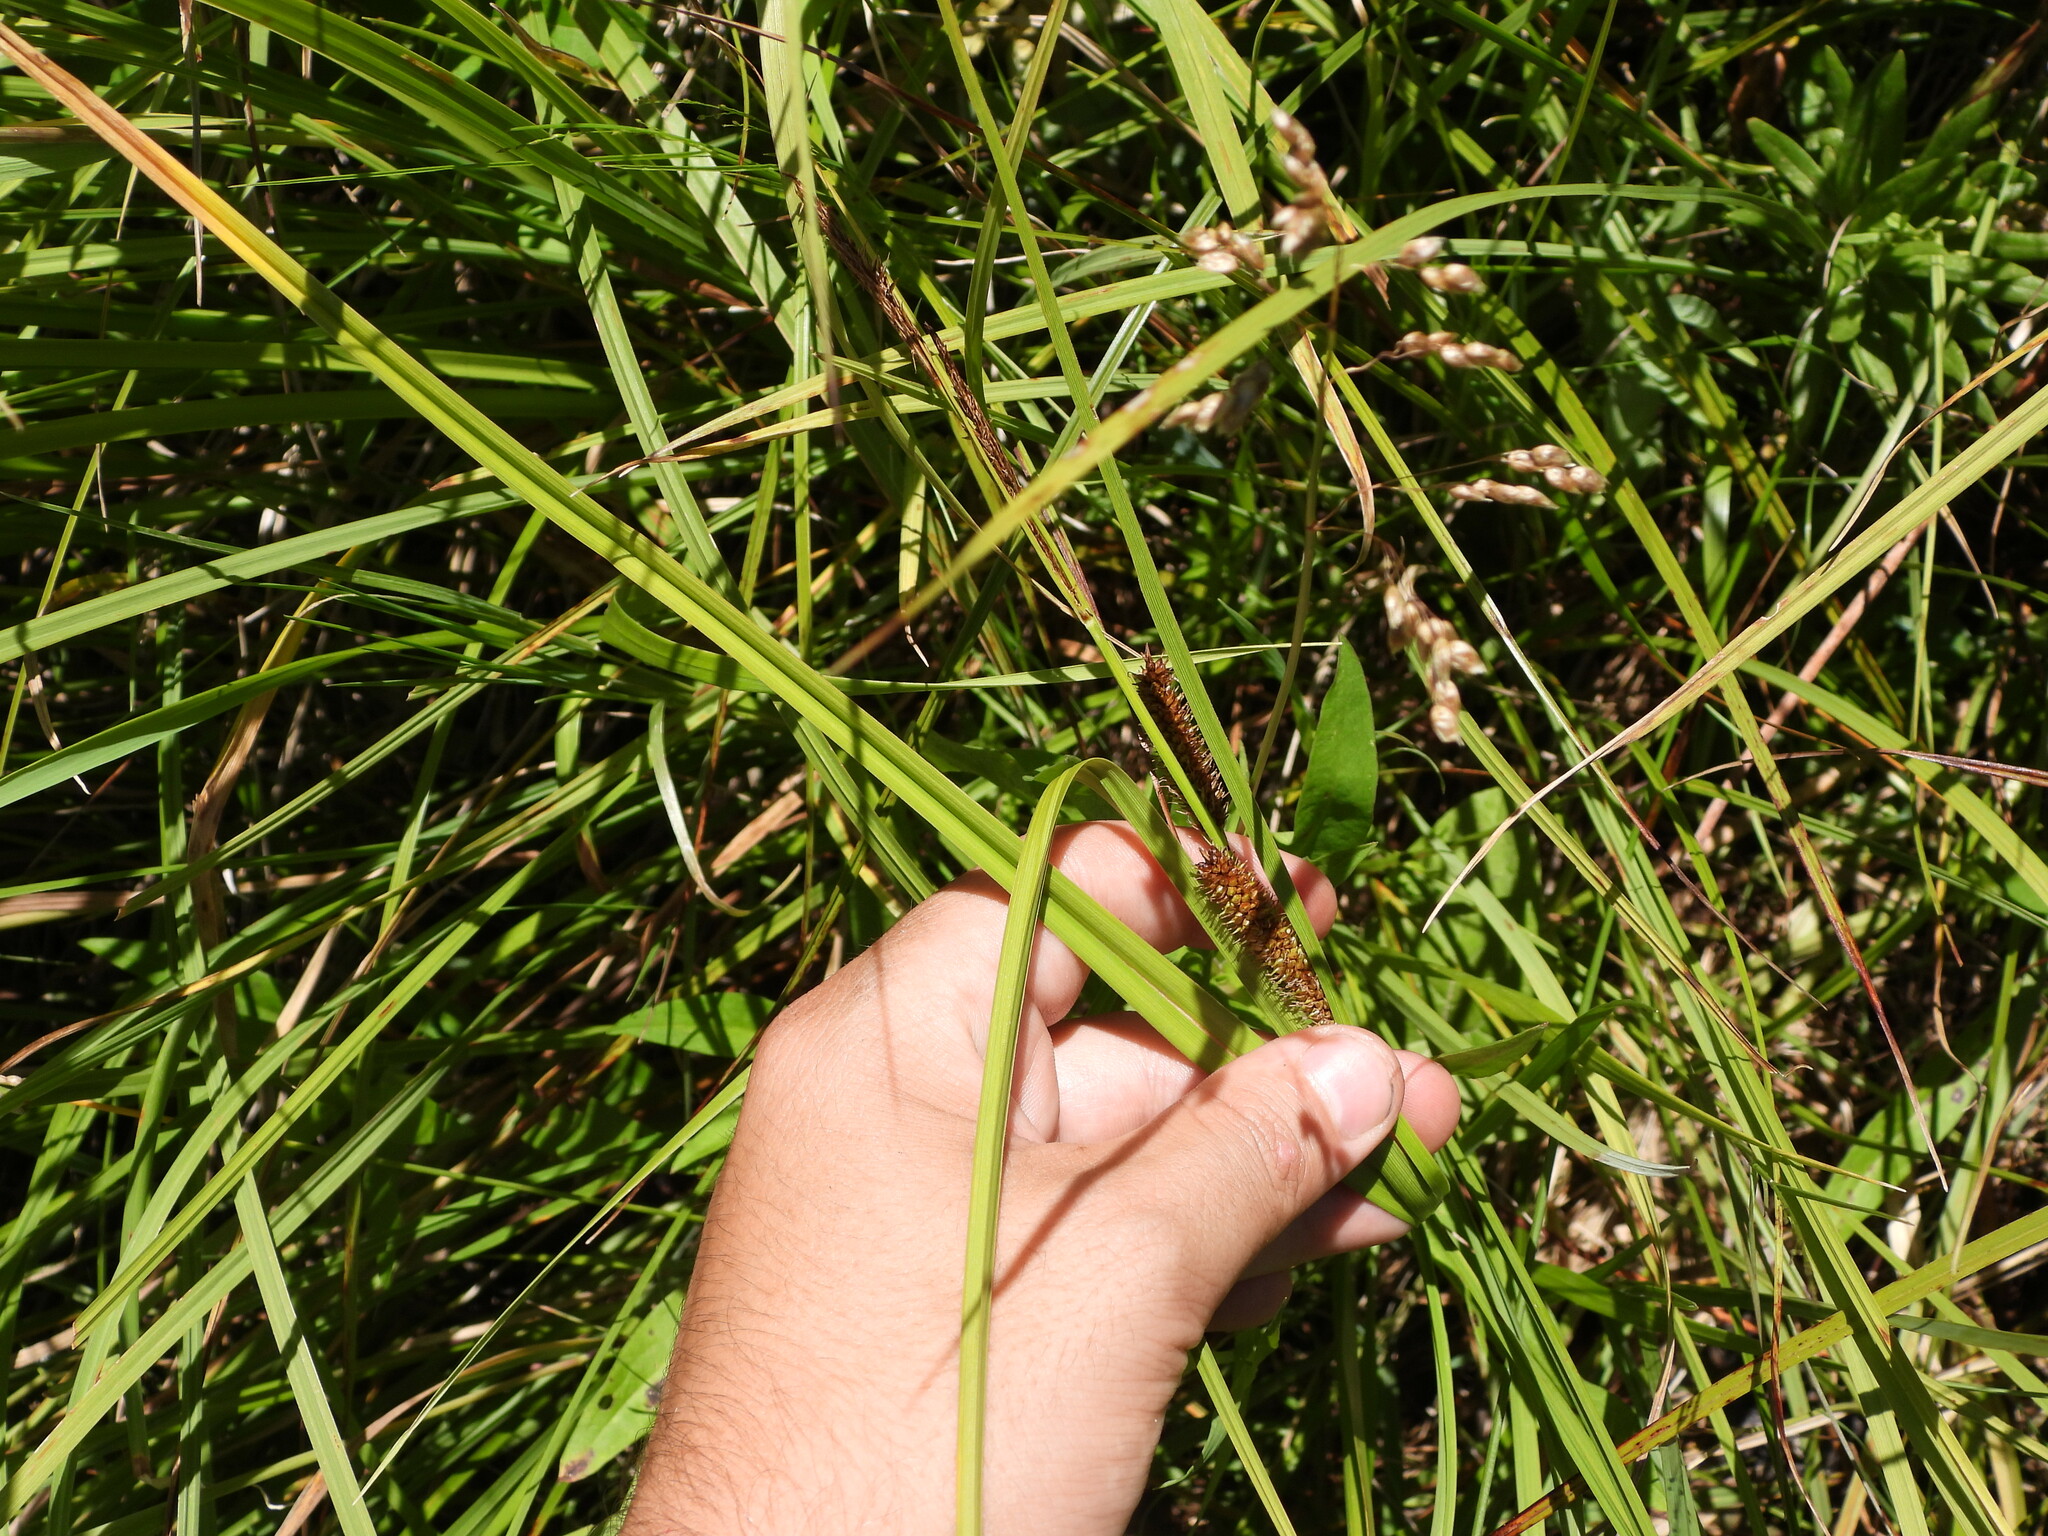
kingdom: Plantae
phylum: Tracheophyta
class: Liliopsida
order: Poales
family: Cyperaceae
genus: Carex
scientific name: Carex utriculata
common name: Beaked sedge
